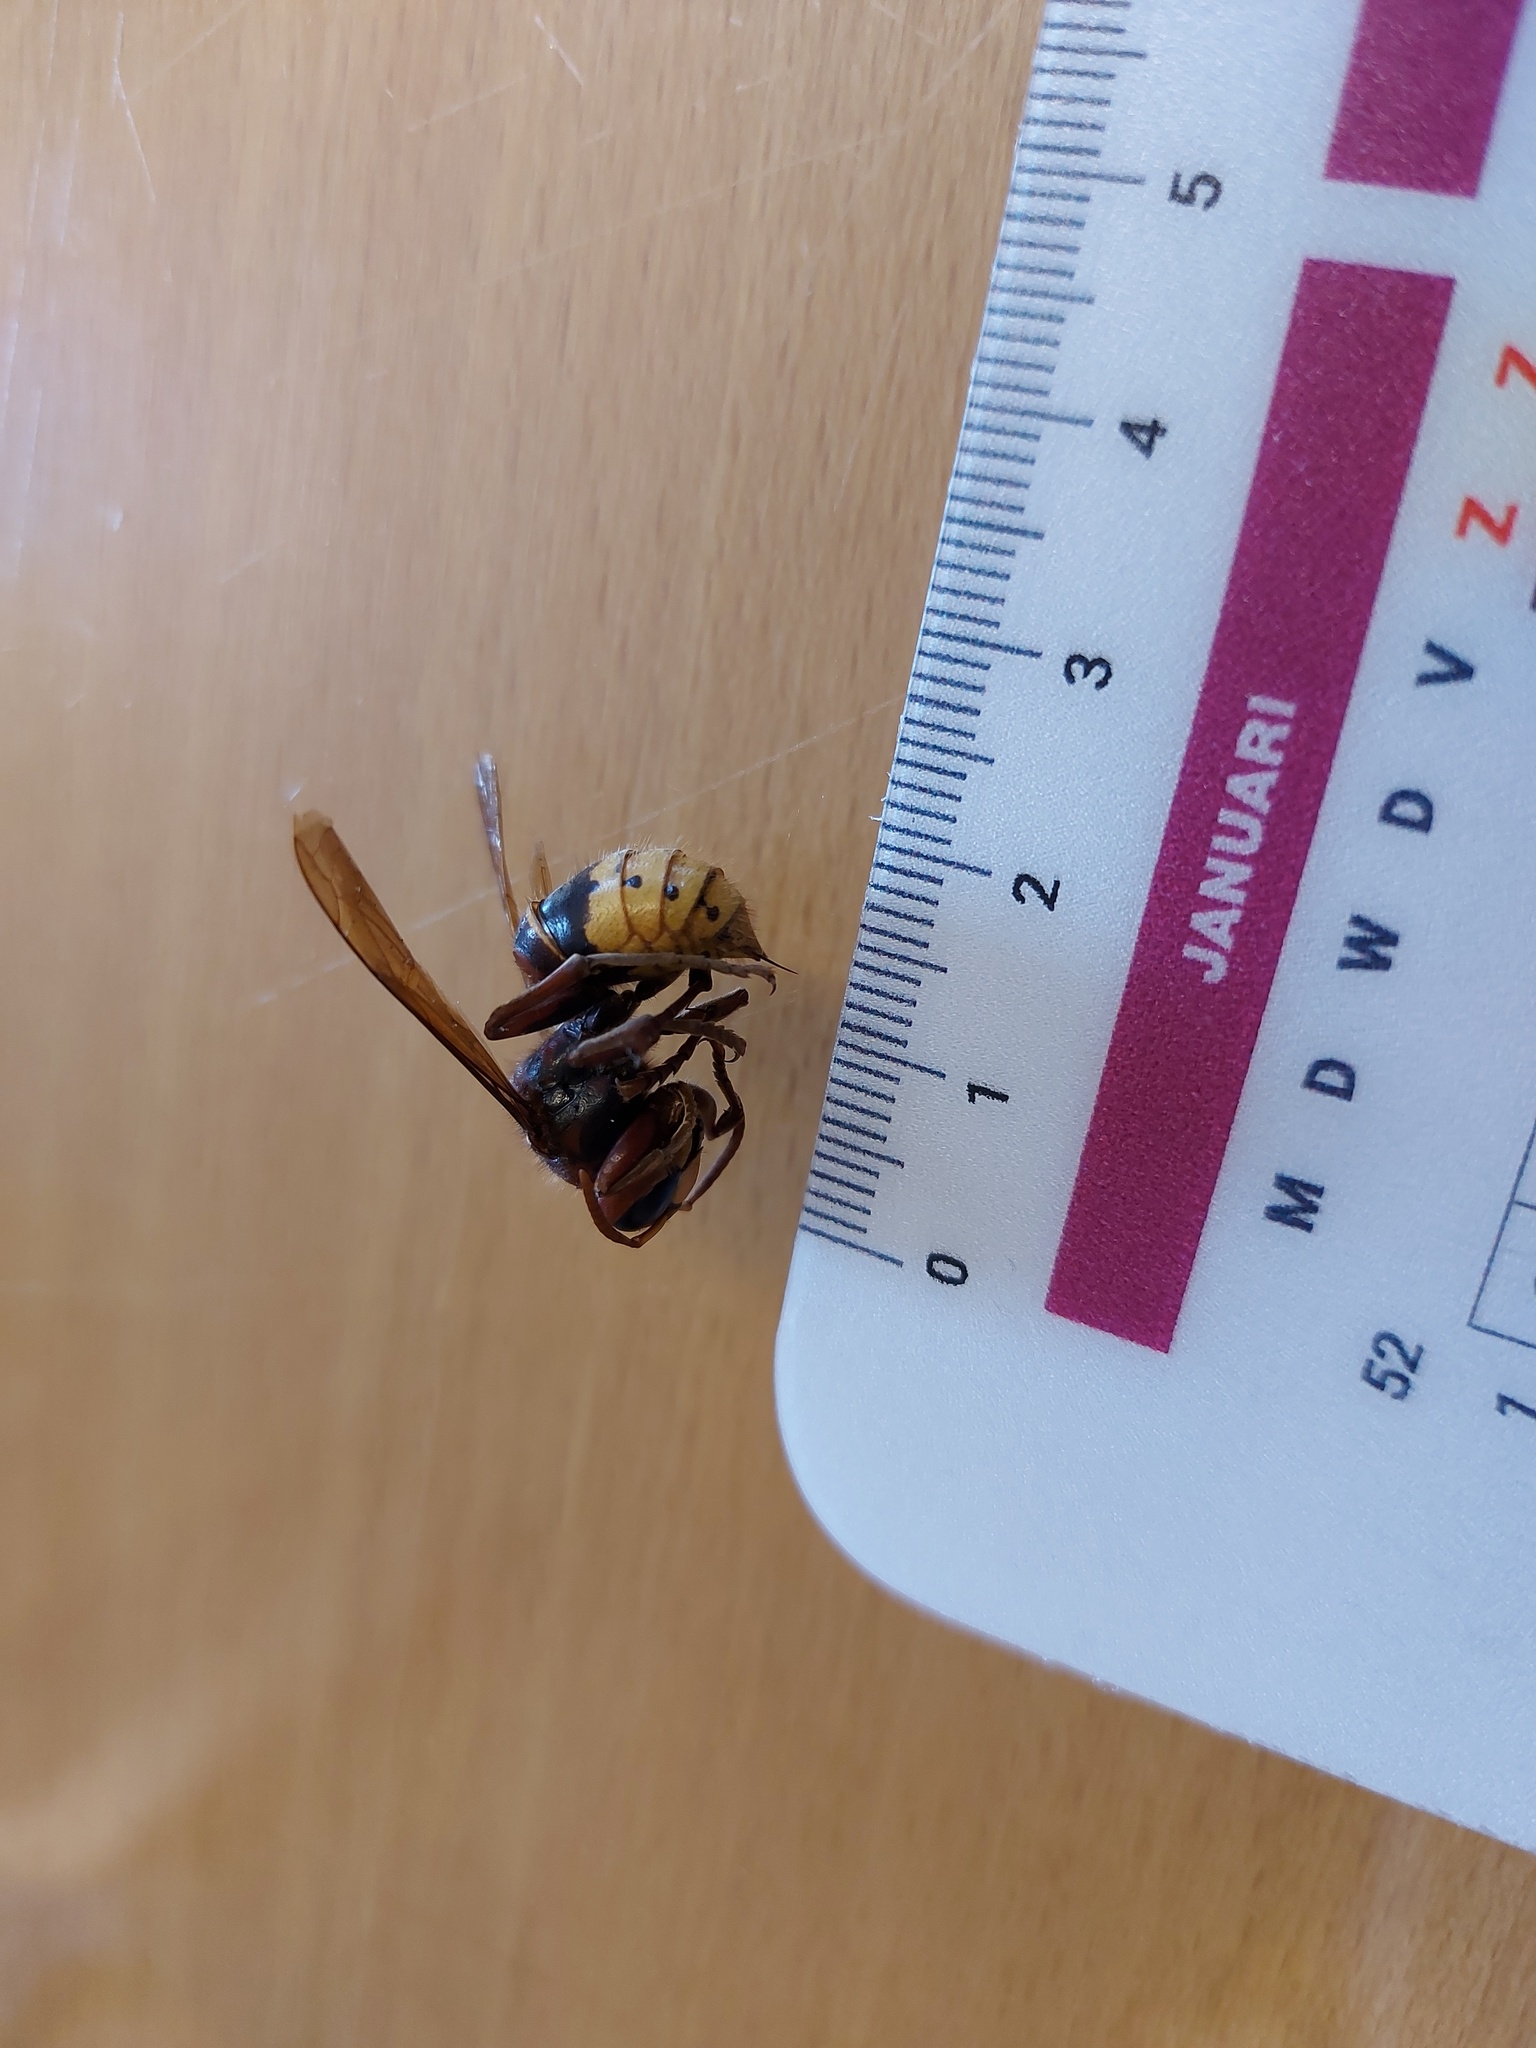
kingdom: Animalia
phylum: Arthropoda
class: Insecta
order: Hymenoptera
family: Vespidae
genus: Vespa
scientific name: Vespa crabro
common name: Hornet
